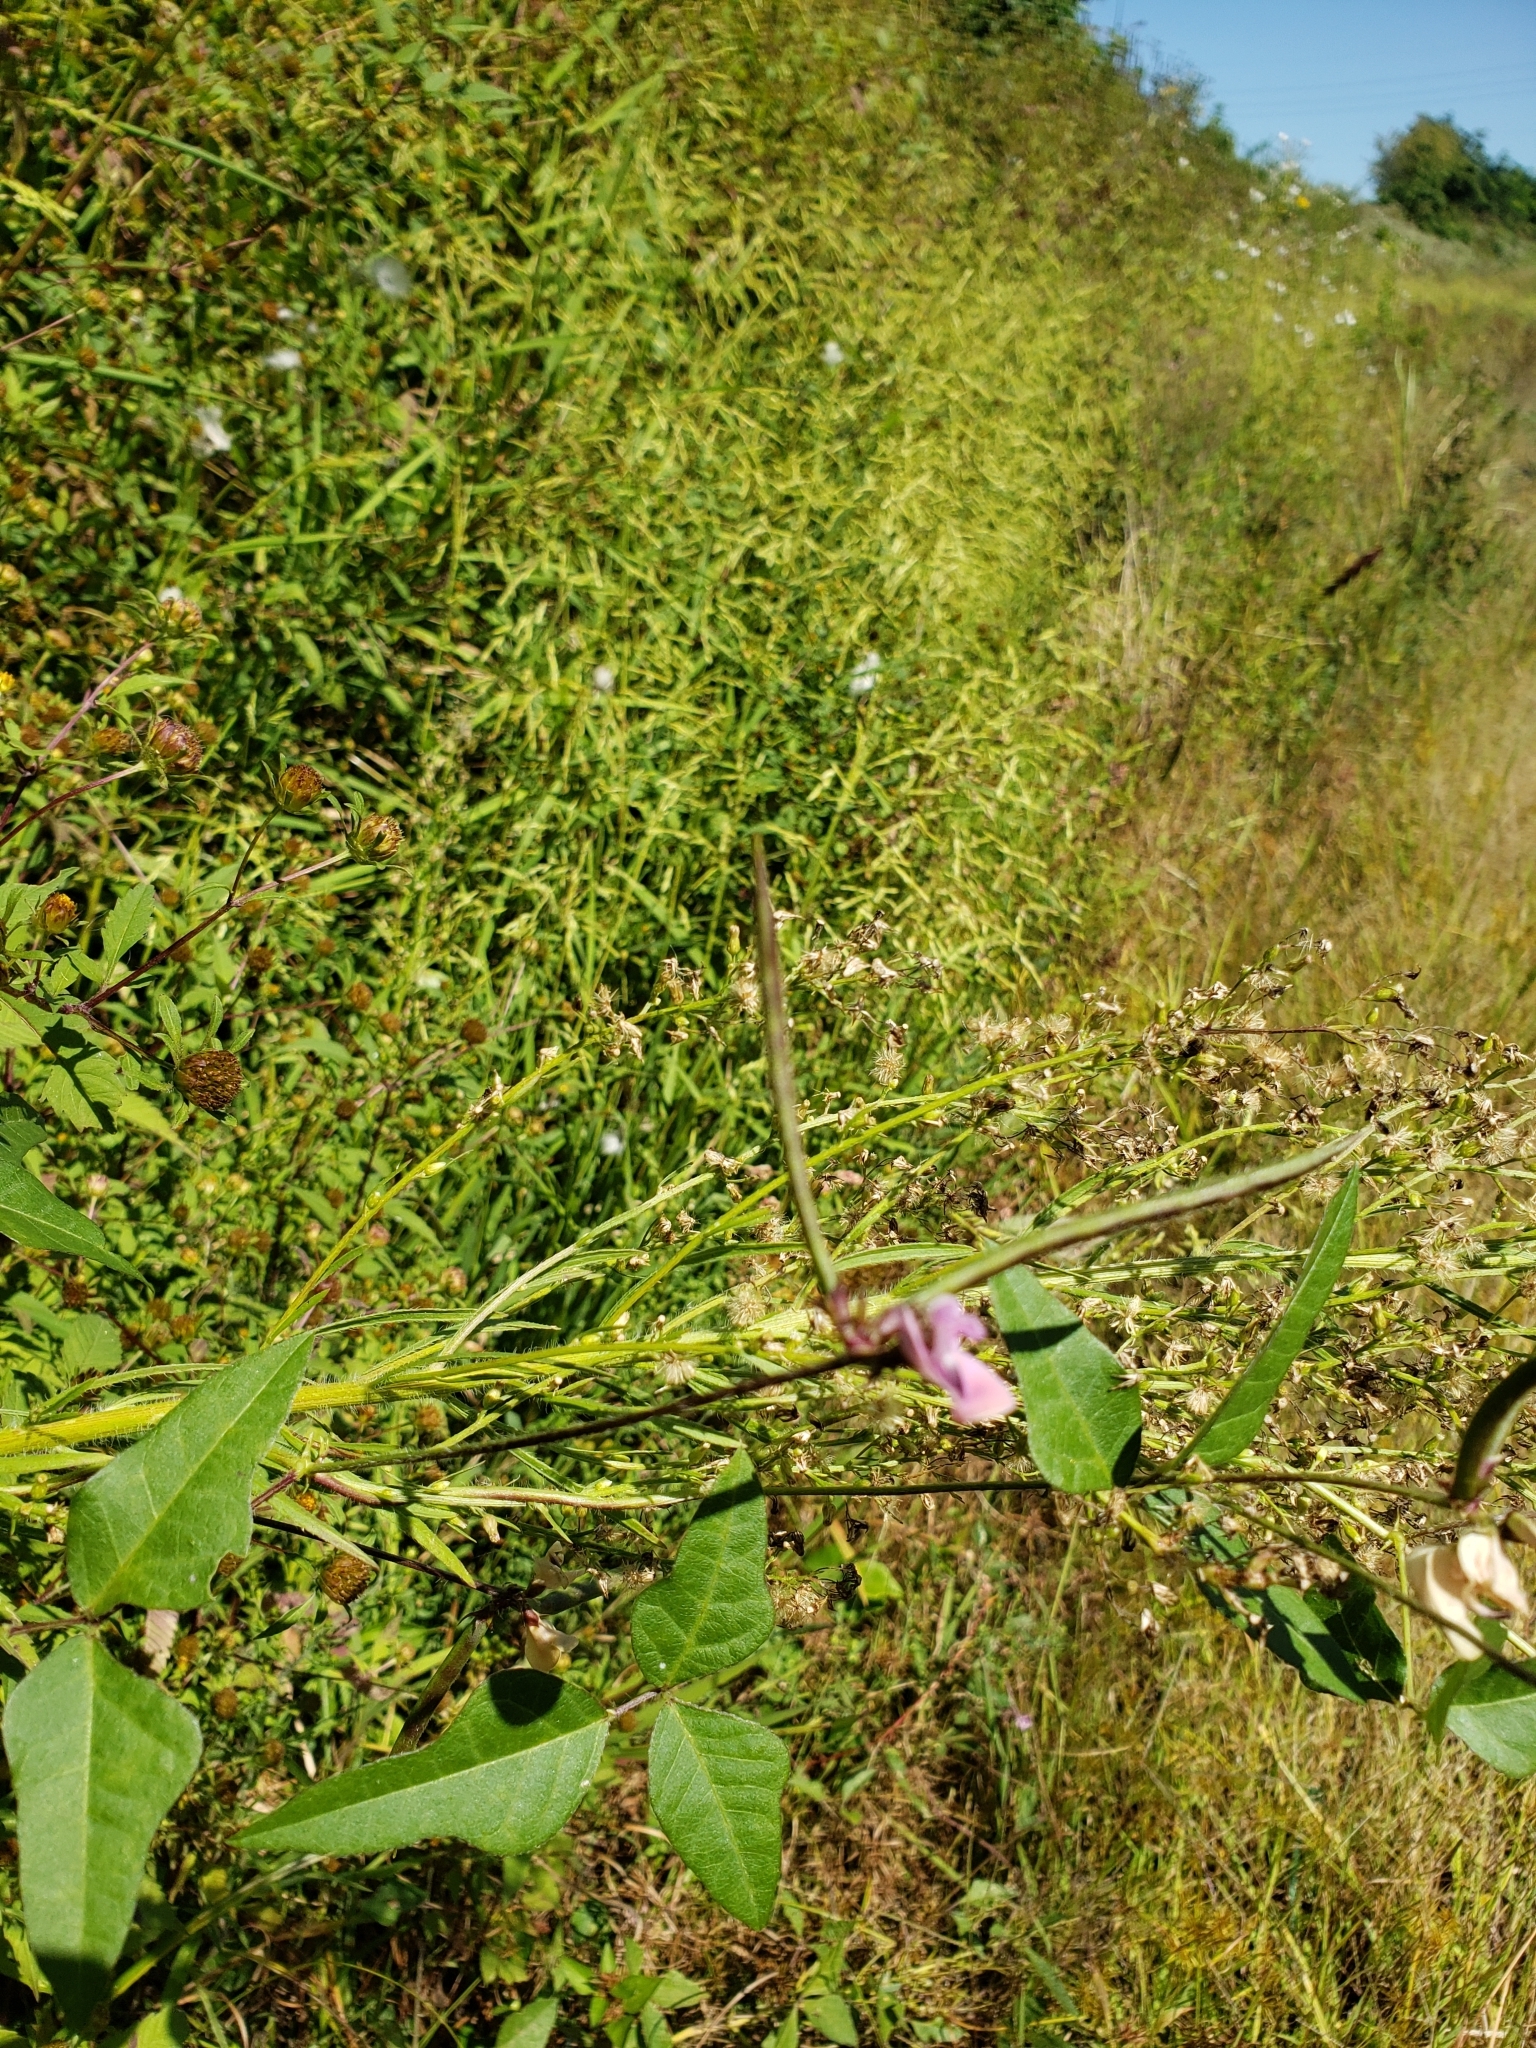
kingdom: Plantae
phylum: Tracheophyta
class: Magnoliopsida
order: Fabales
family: Fabaceae
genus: Strophostyles
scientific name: Strophostyles helvola
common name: Trailing wild bean
